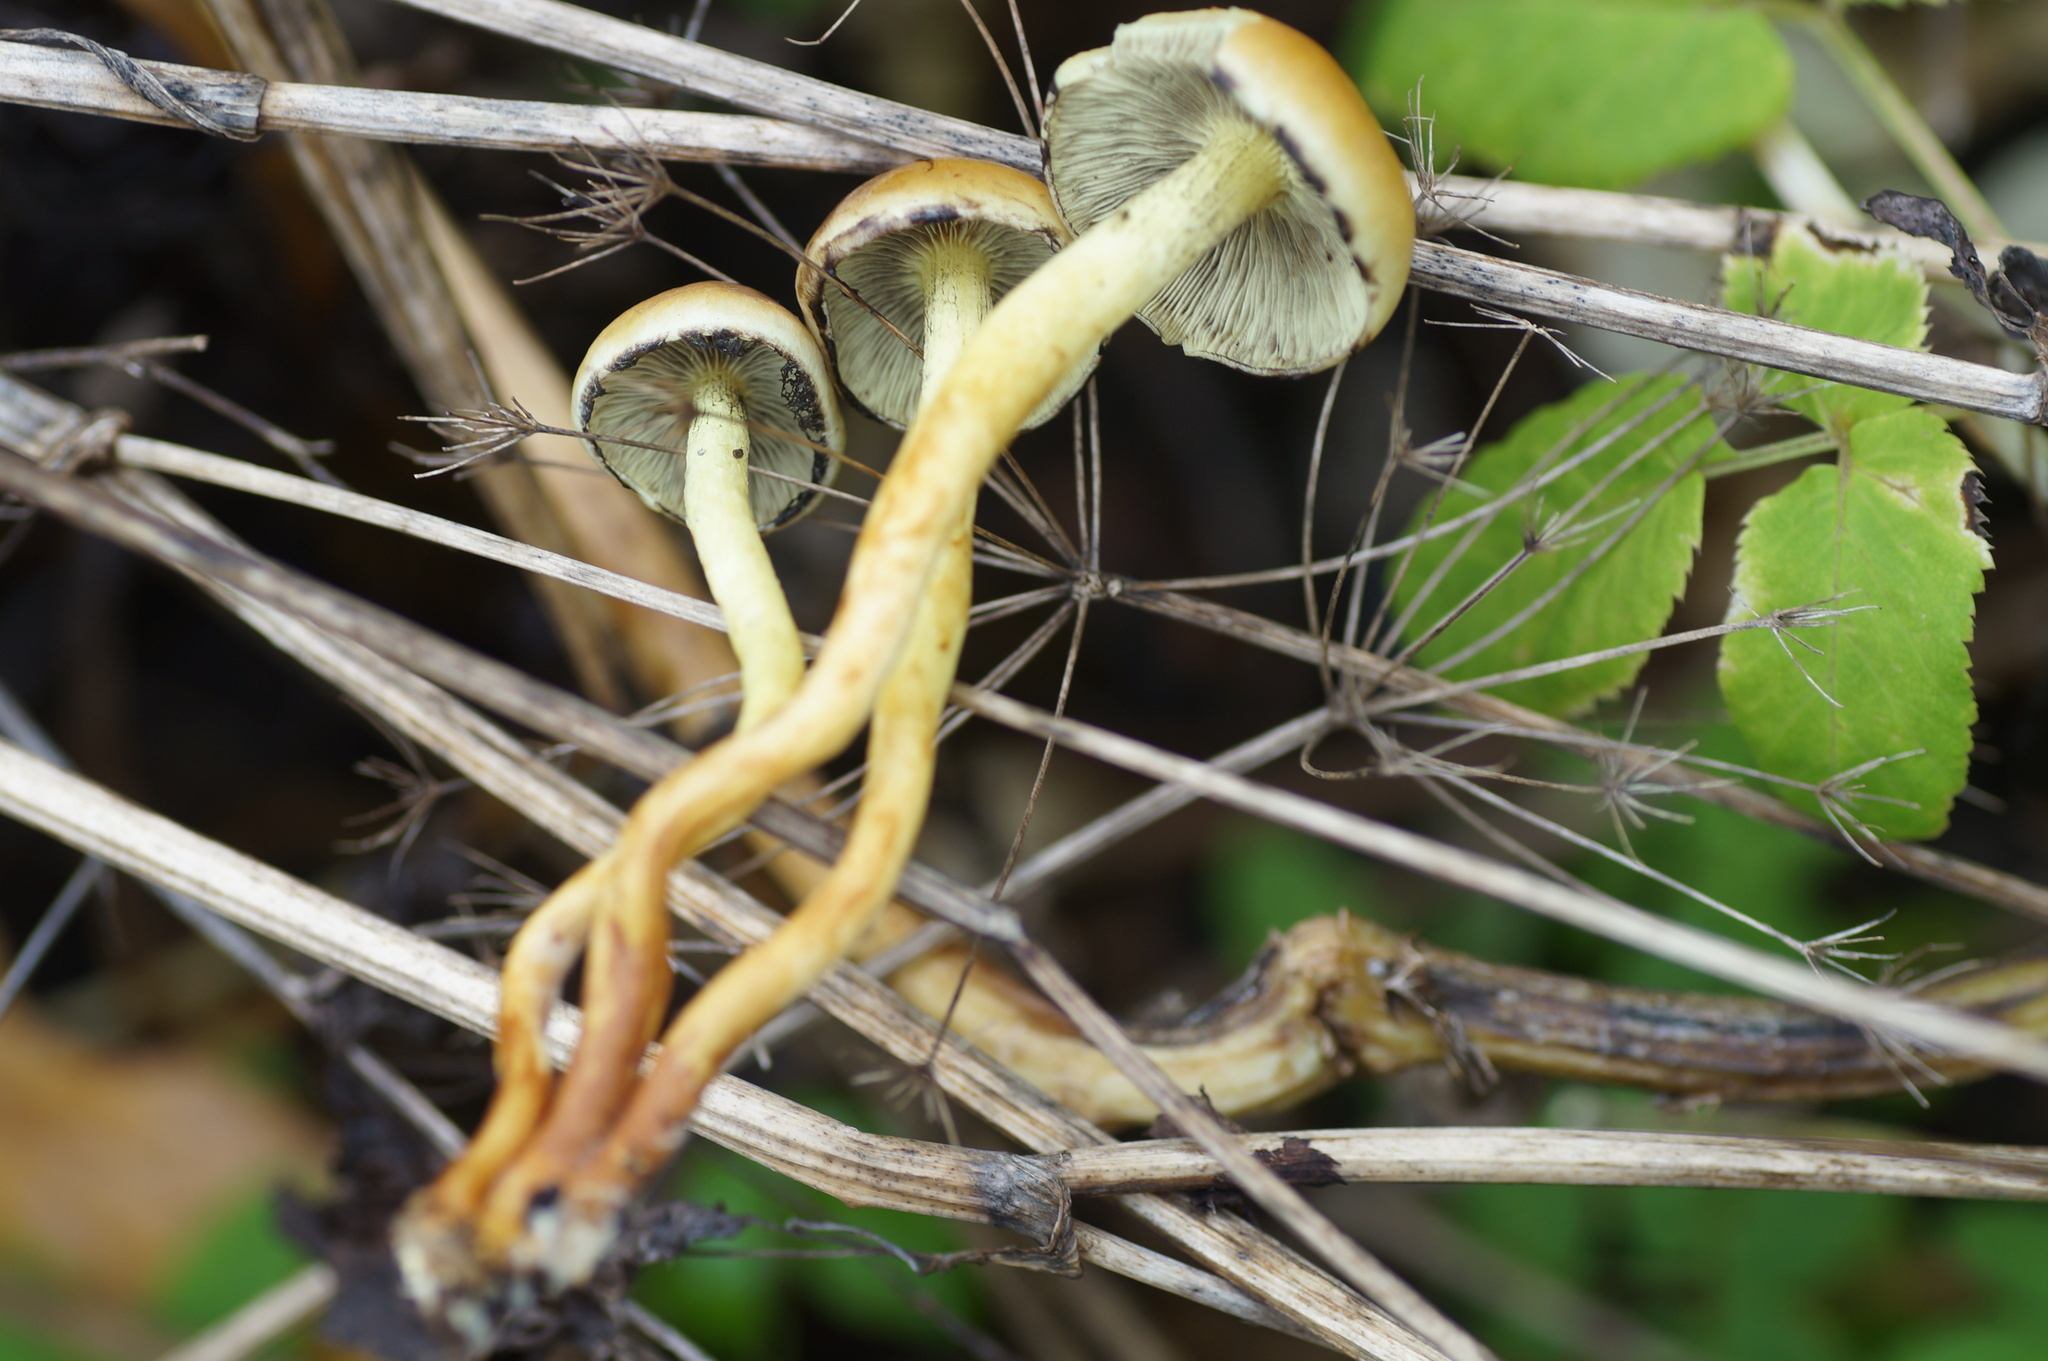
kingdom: Fungi
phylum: Basidiomycota
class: Agaricomycetes
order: Agaricales
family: Strophariaceae
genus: Hypholoma
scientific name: Hypholoma fasciculare
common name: Sulphur tuft
